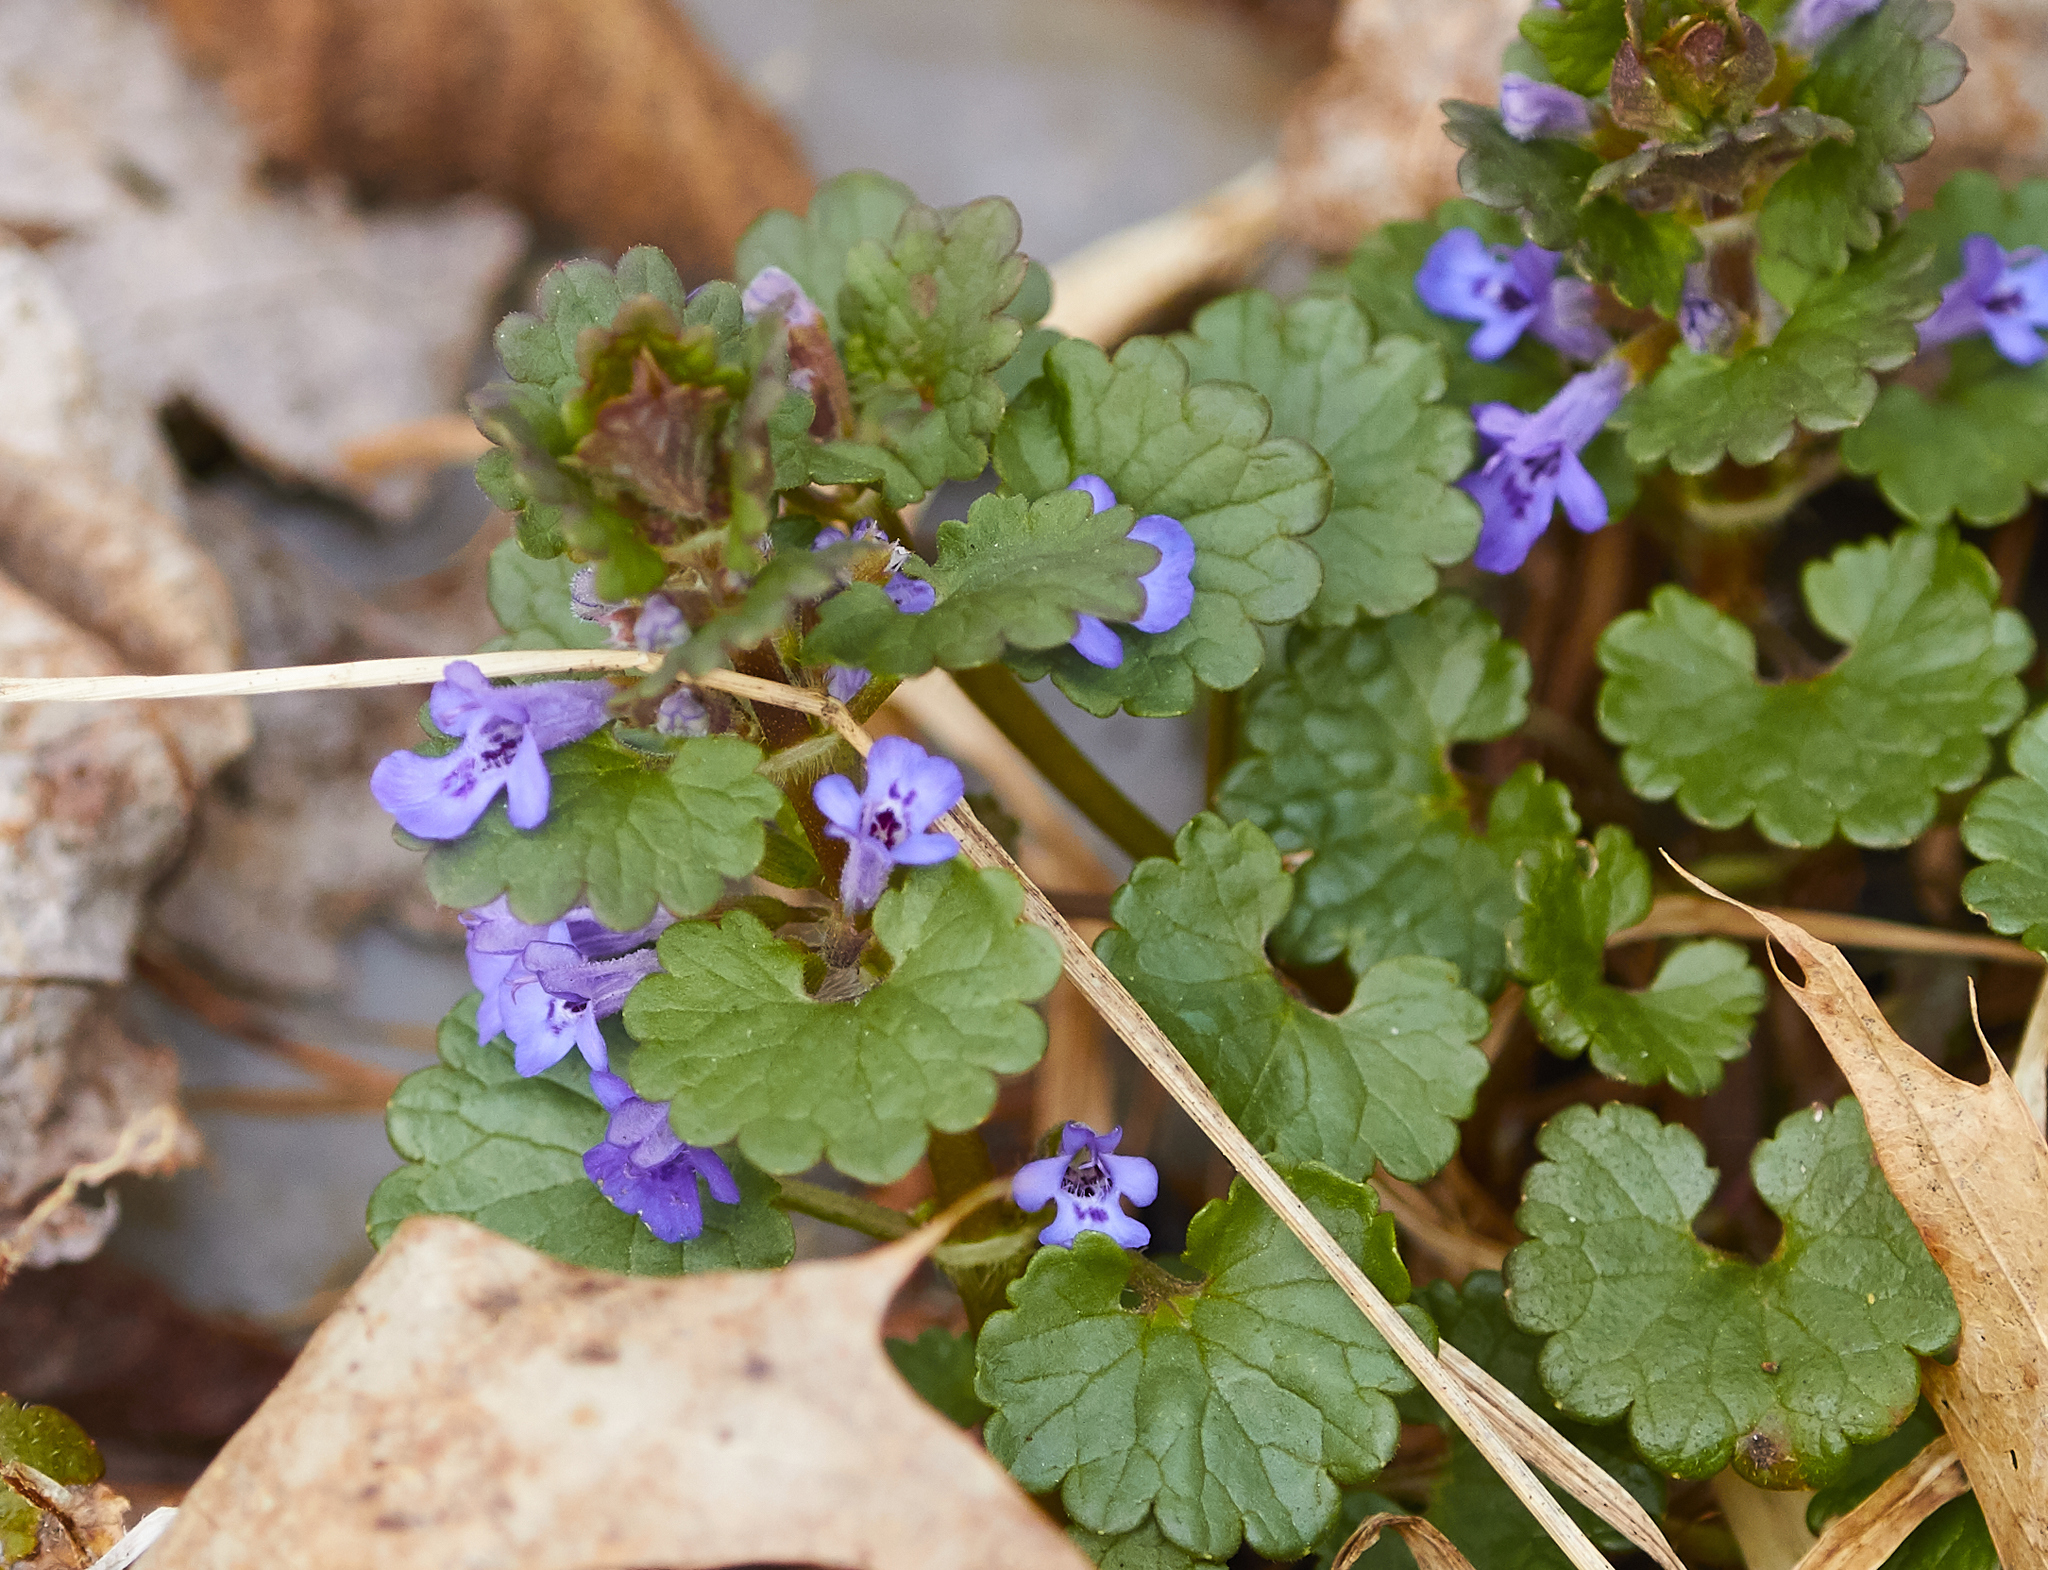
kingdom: Plantae
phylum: Tracheophyta
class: Magnoliopsida
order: Lamiales
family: Lamiaceae
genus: Glechoma
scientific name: Glechoma hederacea
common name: Ground ivy
